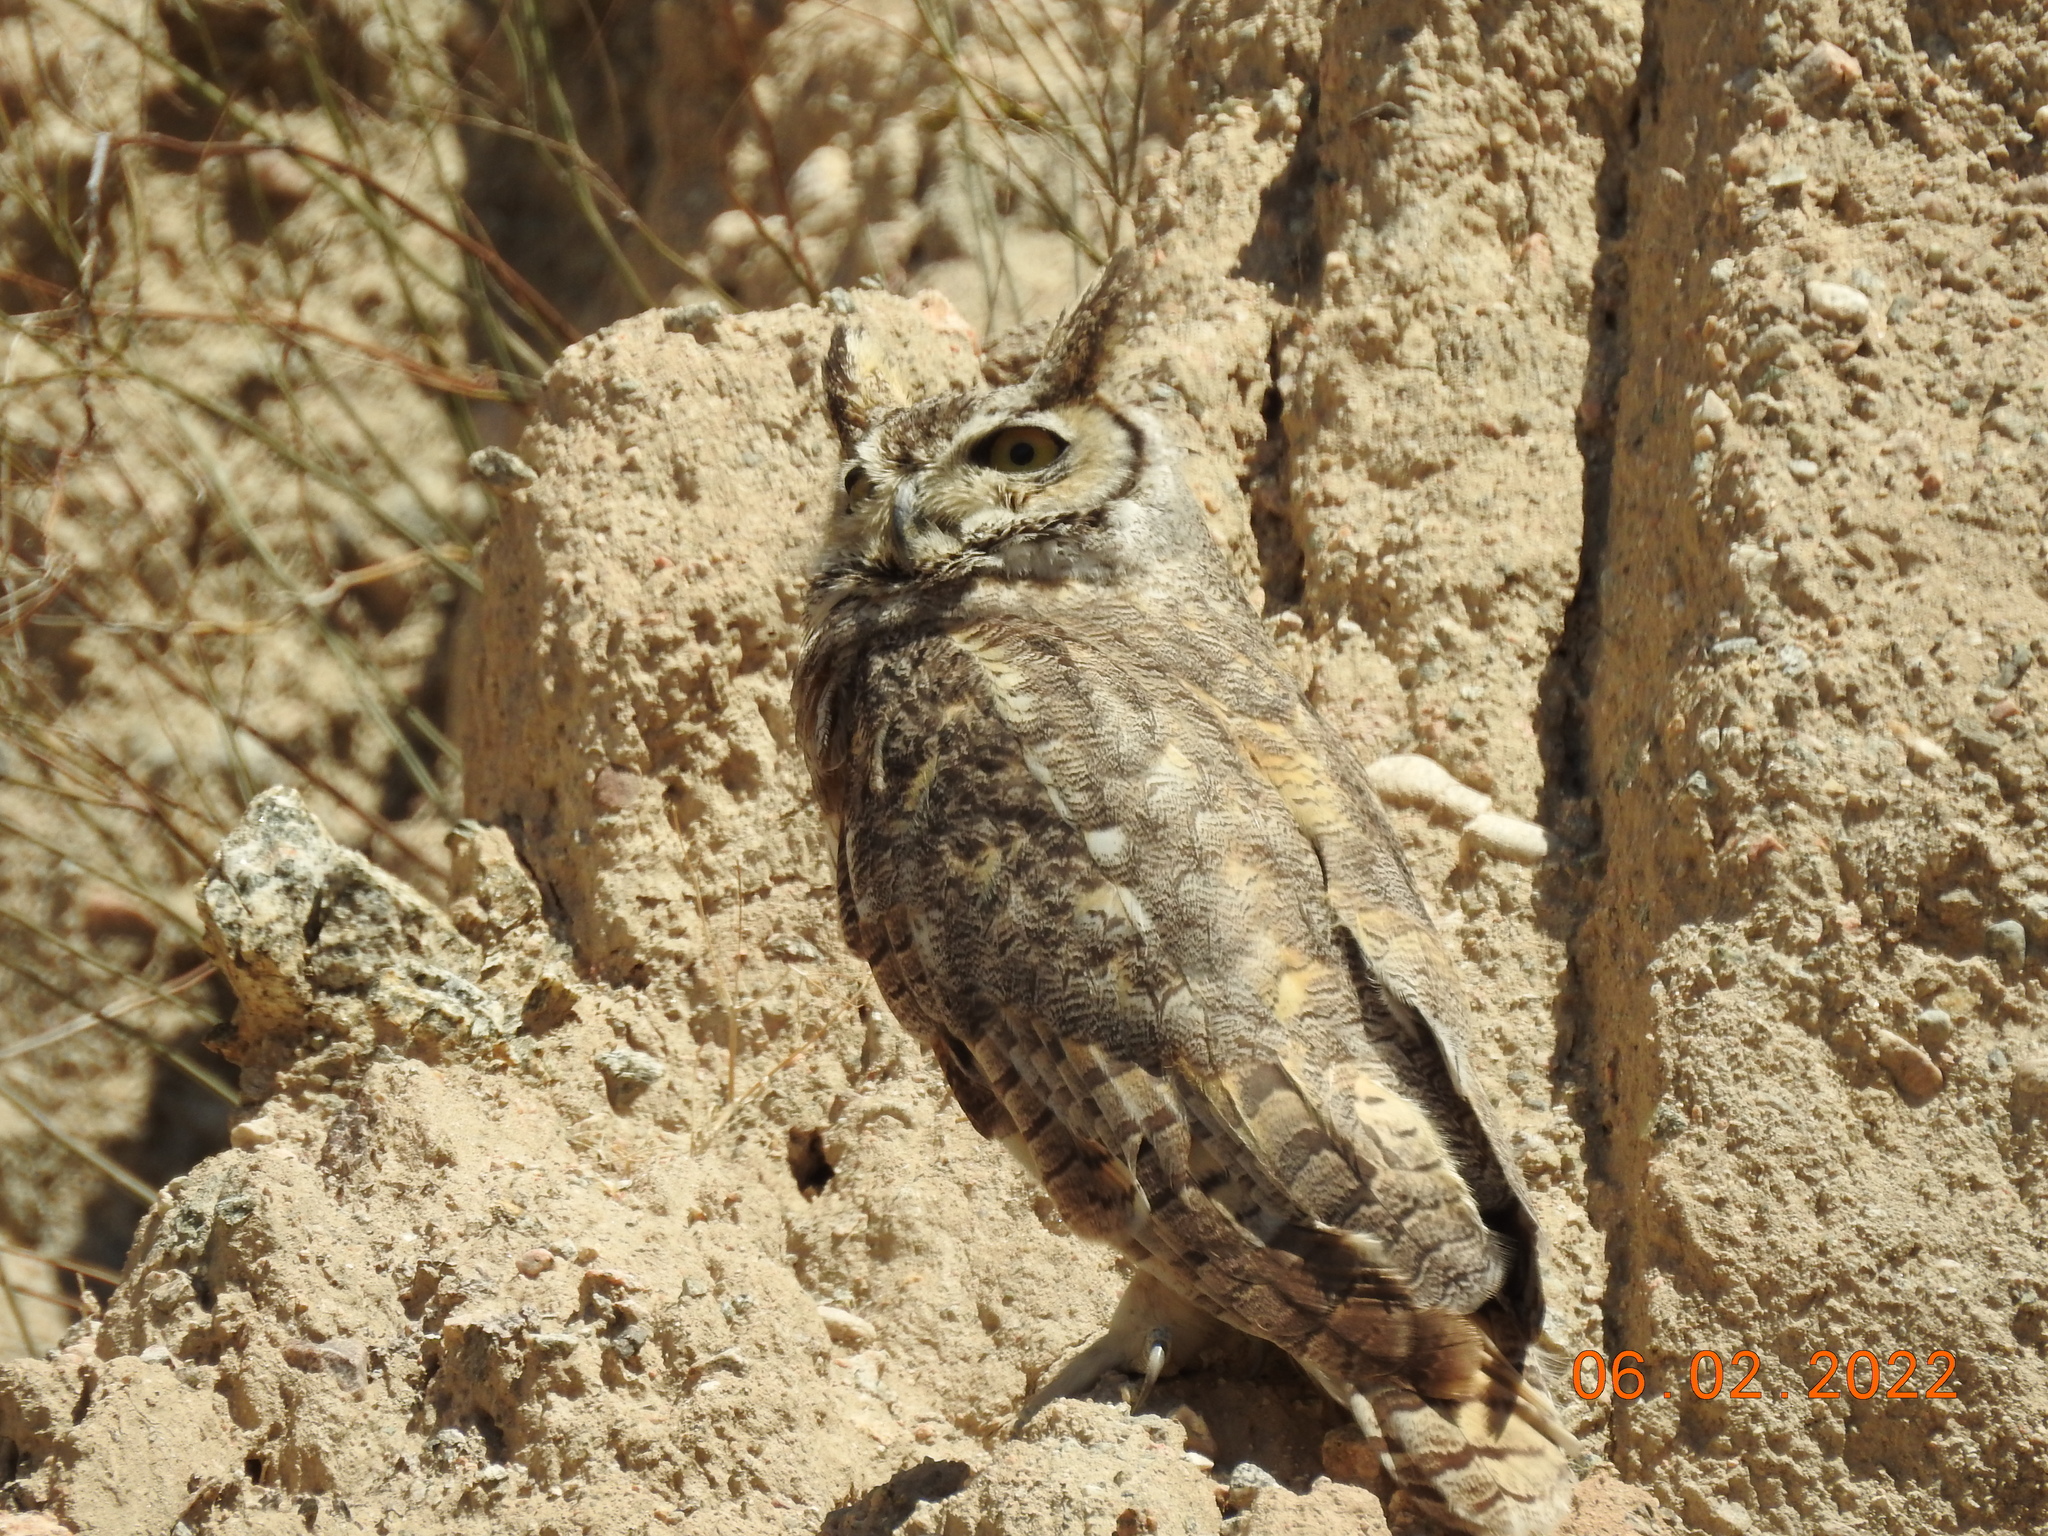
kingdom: Animalia
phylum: Chordata
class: Aves
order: Strigiformes
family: Strigidae
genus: Bubo
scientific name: Bubo virginianus
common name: Great horned owl
